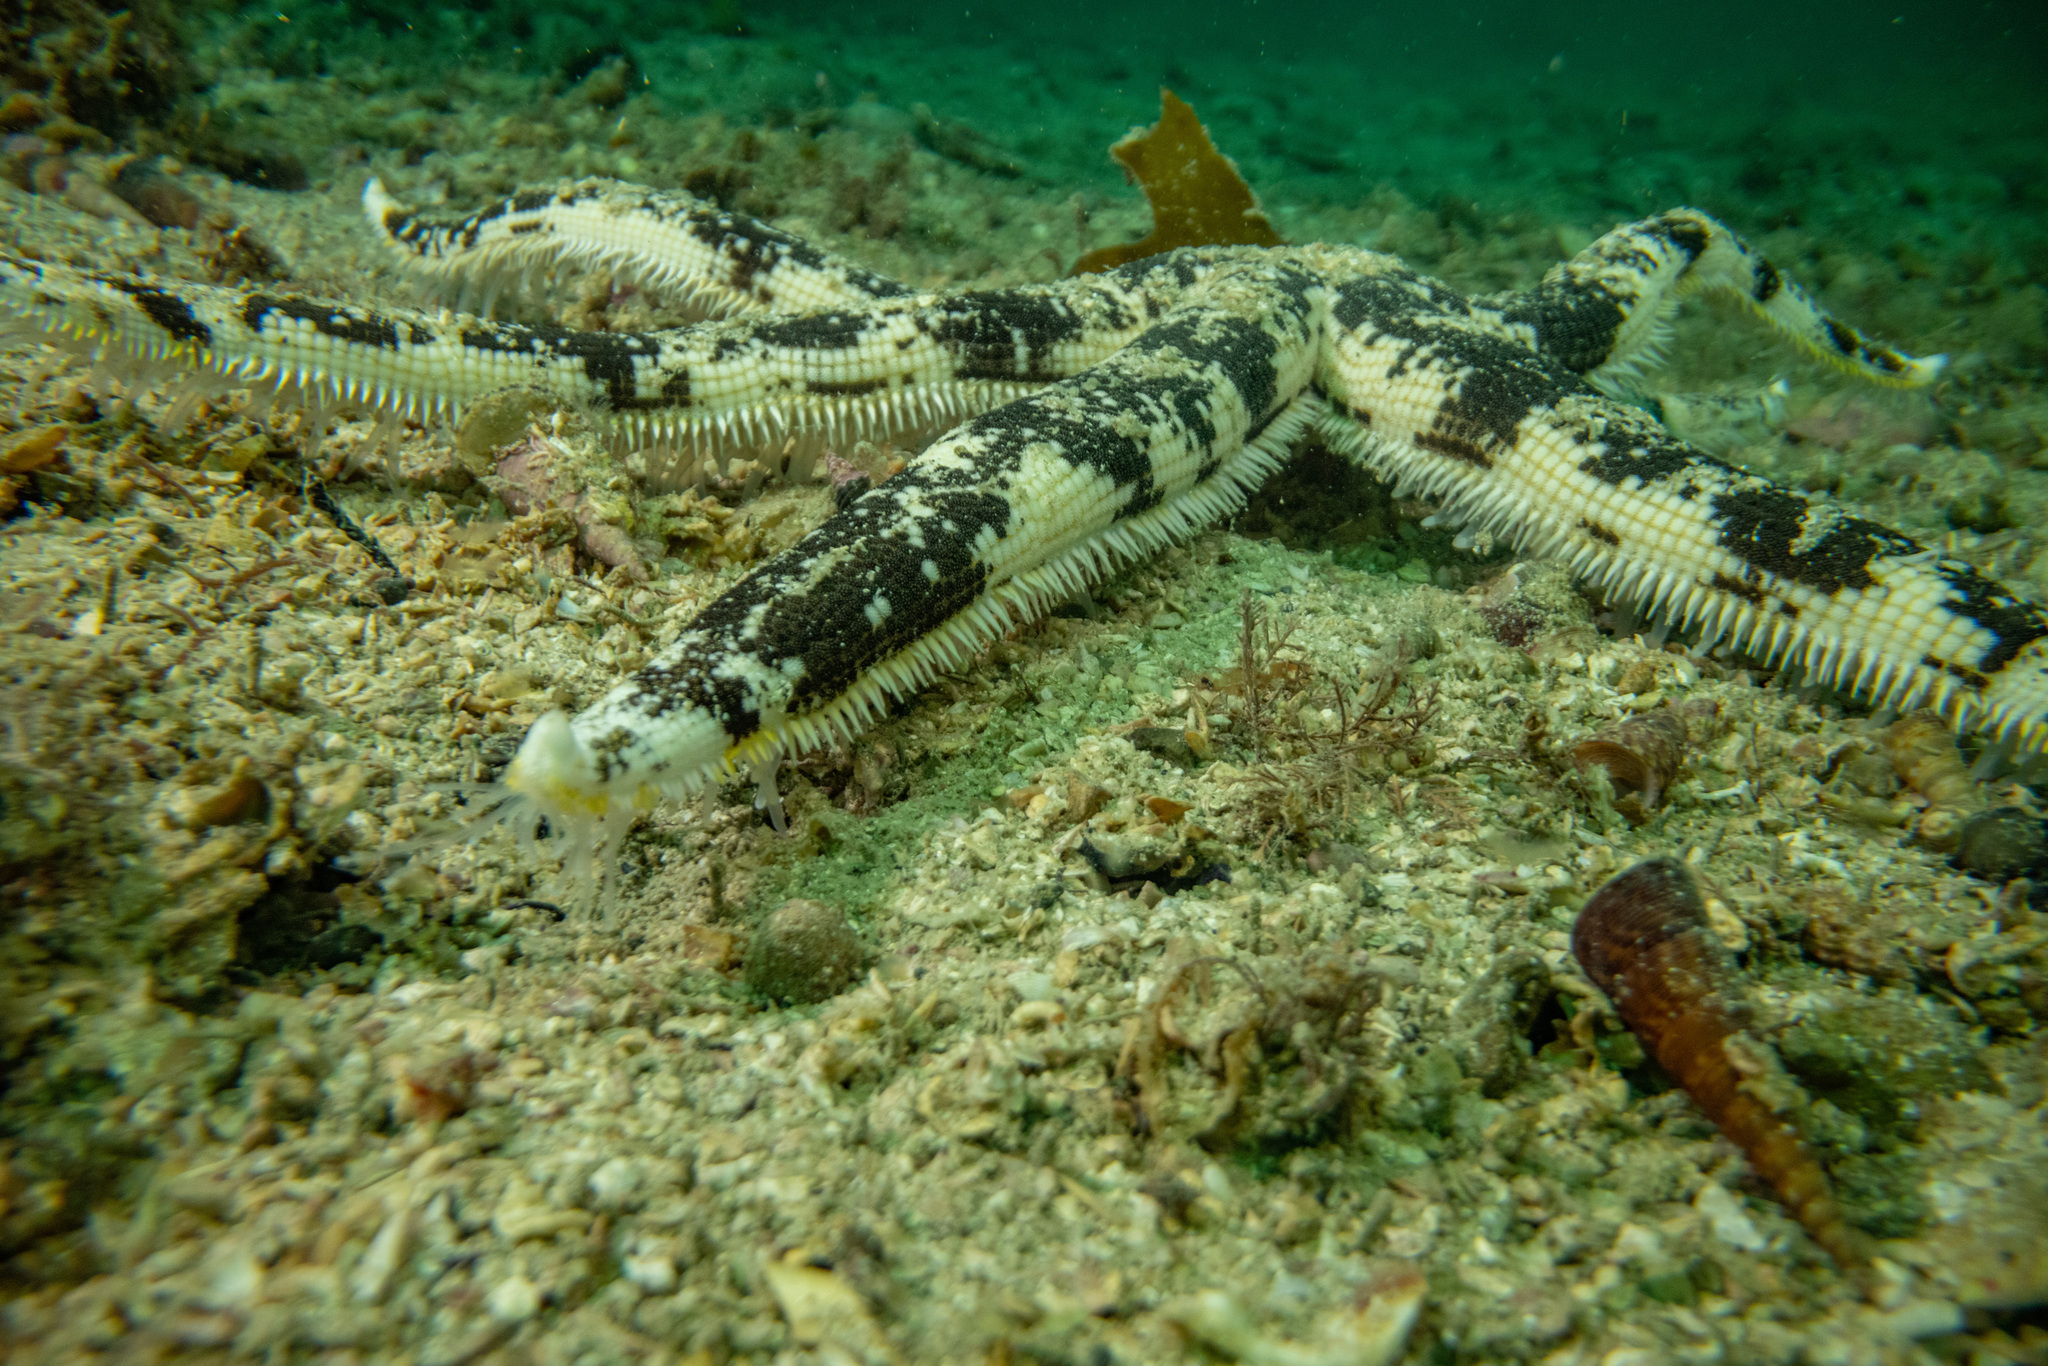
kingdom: Animalia
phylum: Echinodermata
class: Asteroidea
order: Paxillosida
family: Luidiidae
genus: Luidia
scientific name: Luidia australiae
